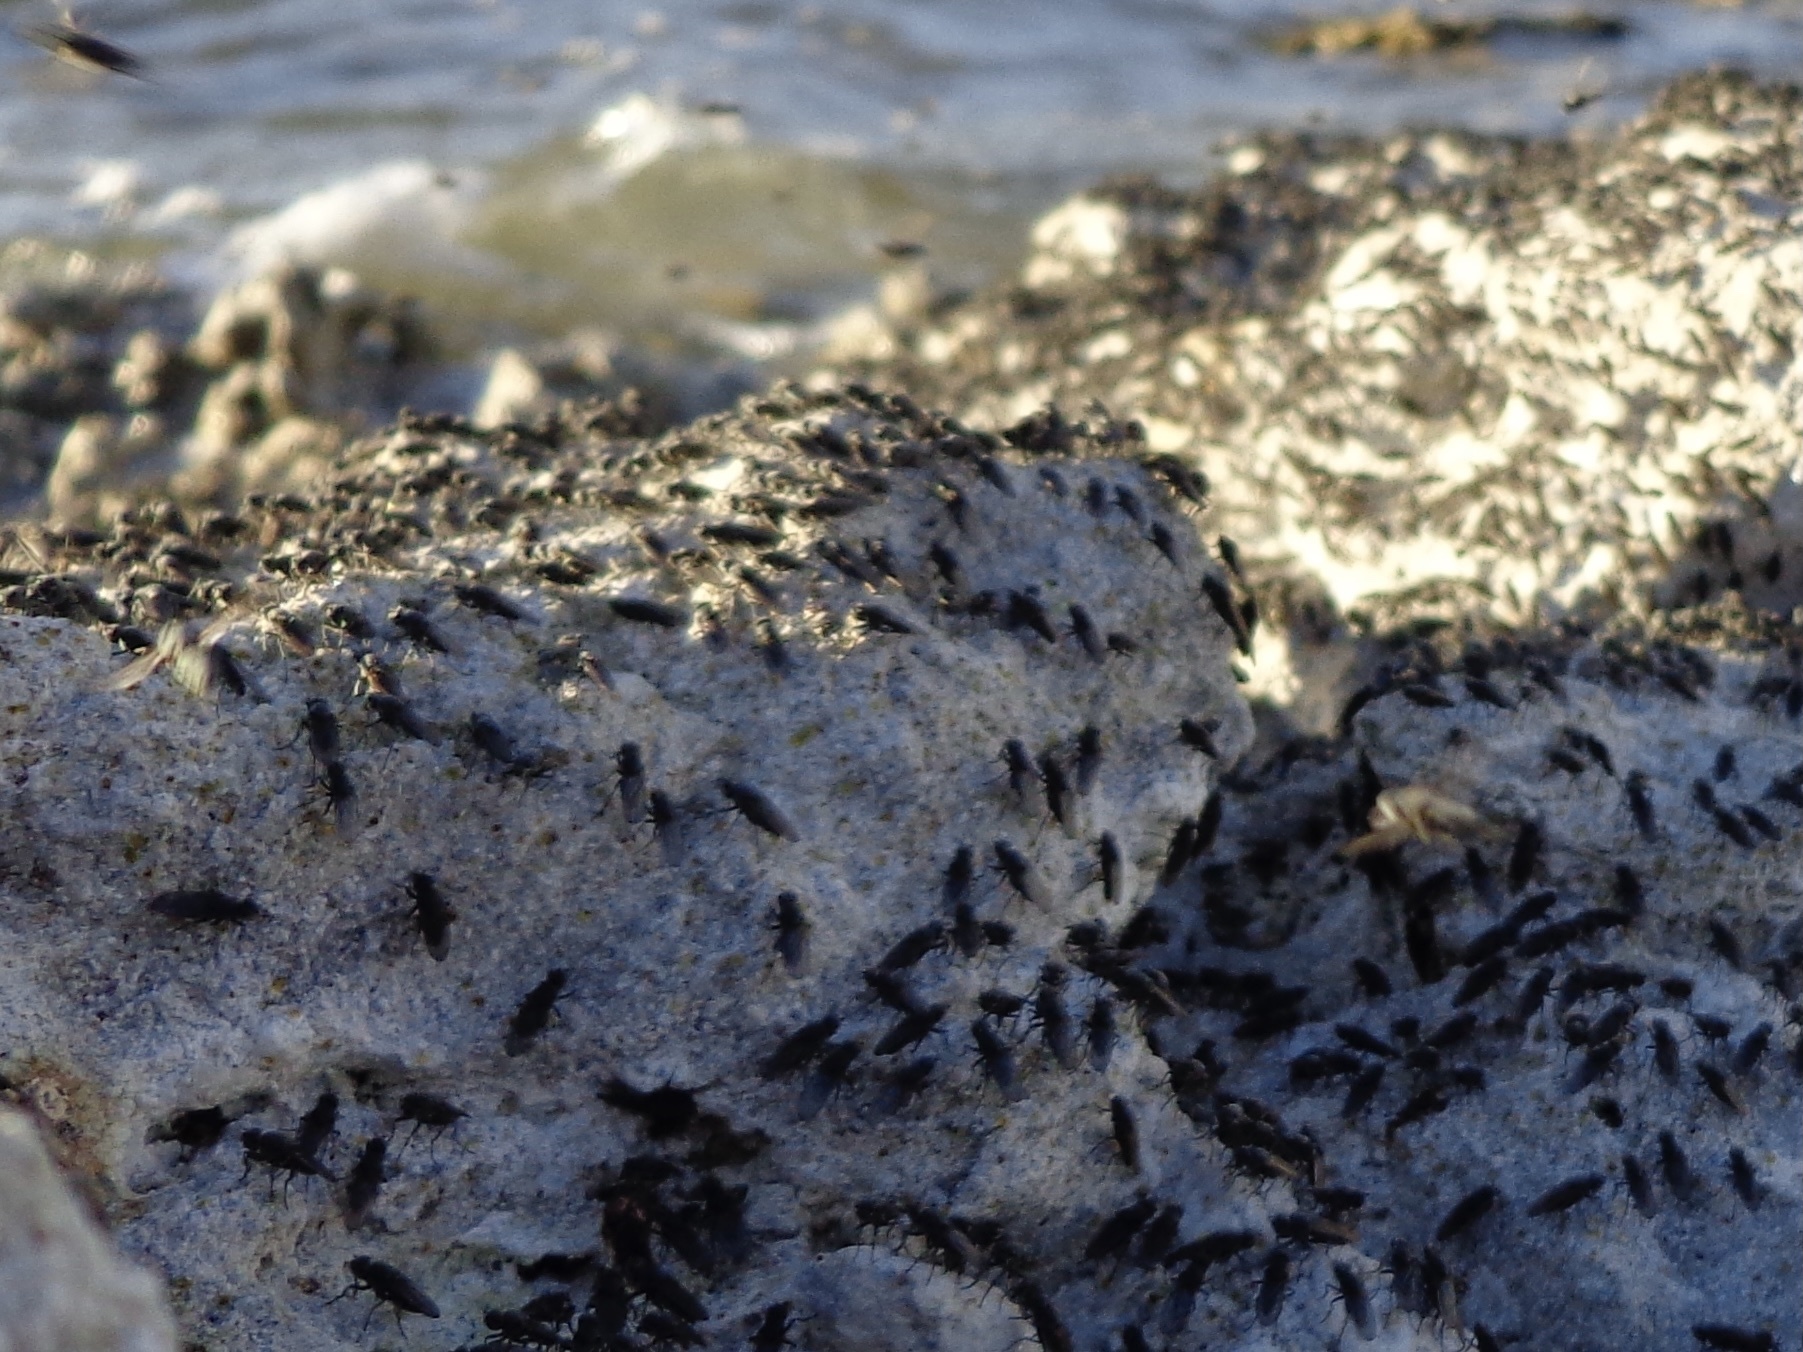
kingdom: Animalia
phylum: Arthropoda
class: Insecta
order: Diptera
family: Ephydridae
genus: Cirrula
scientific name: Cirrula hians
